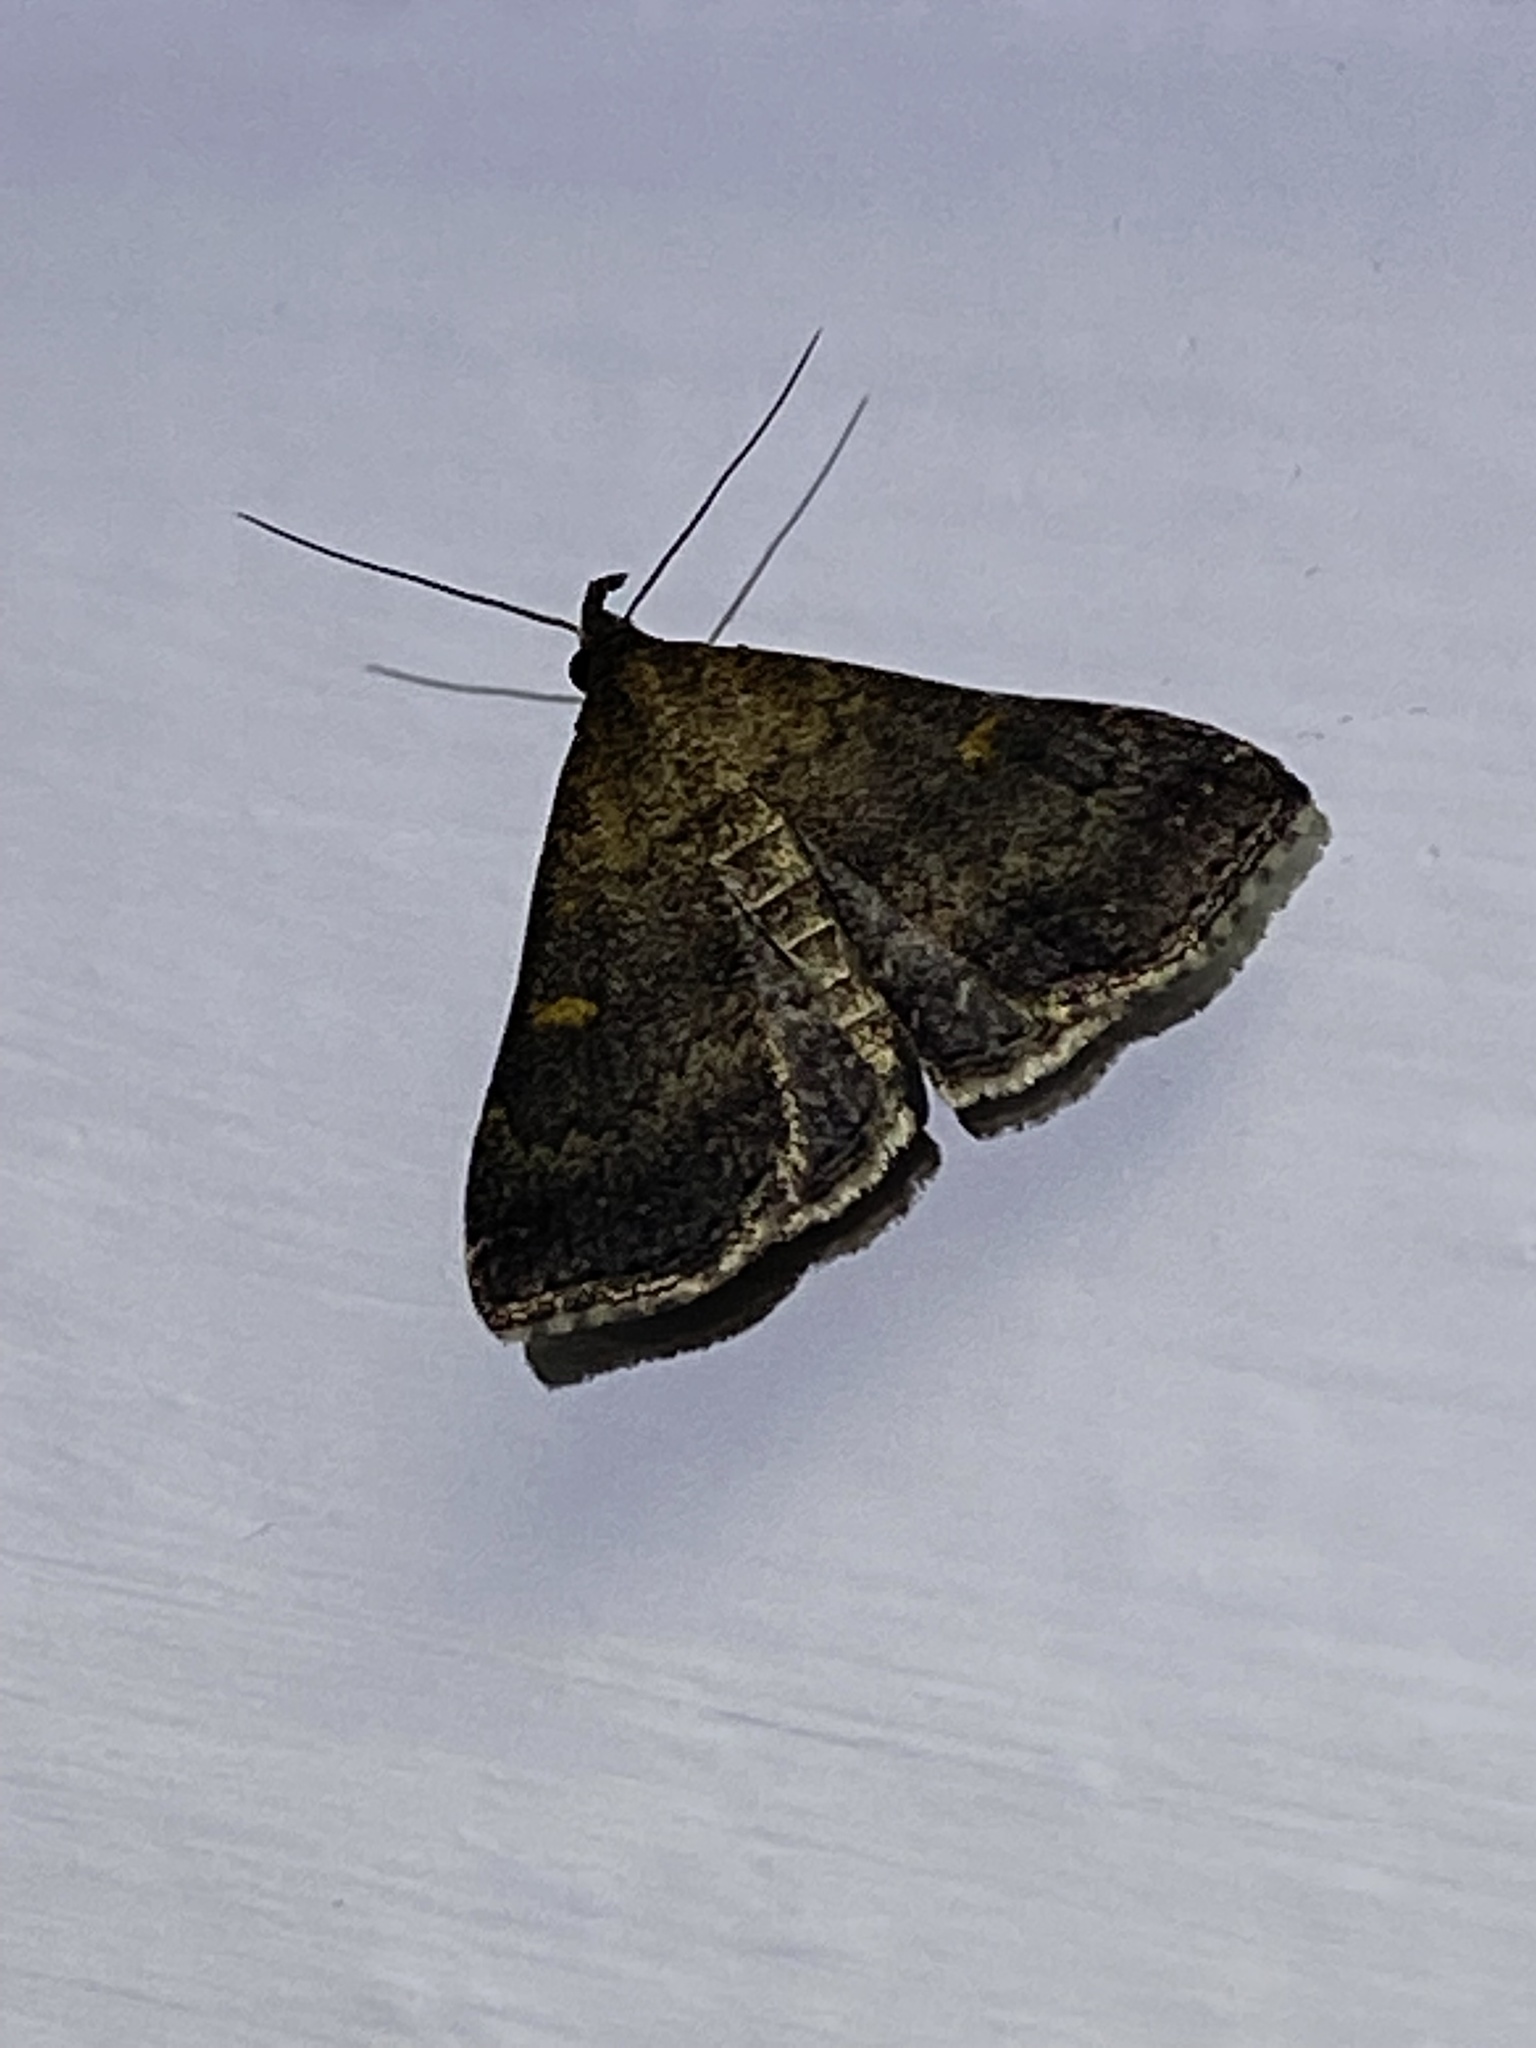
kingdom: Animalia
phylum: Arthropoda
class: Insecta
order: Lepidoptera
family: Erebidae
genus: Tetanolita
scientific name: Tetanolita mynesalis
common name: Smoky tetanolita moth
